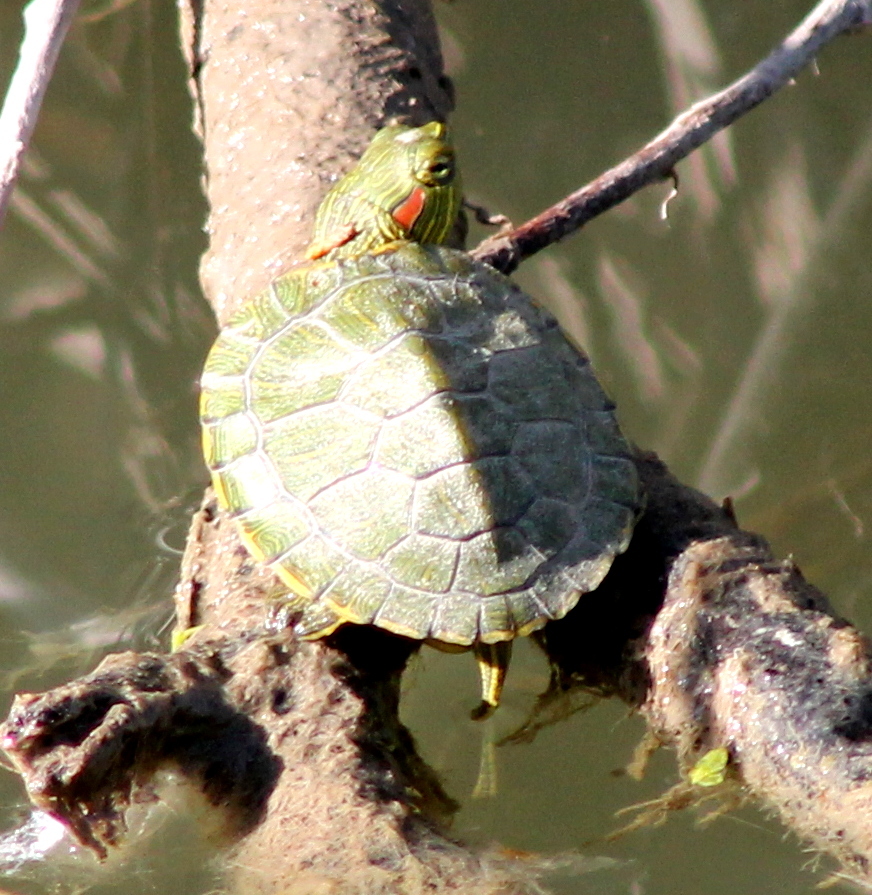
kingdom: Animalia
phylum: Chordata
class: Testudines
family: Emydidae
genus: Trachemys
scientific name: Trachemys scripta
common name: Slider
